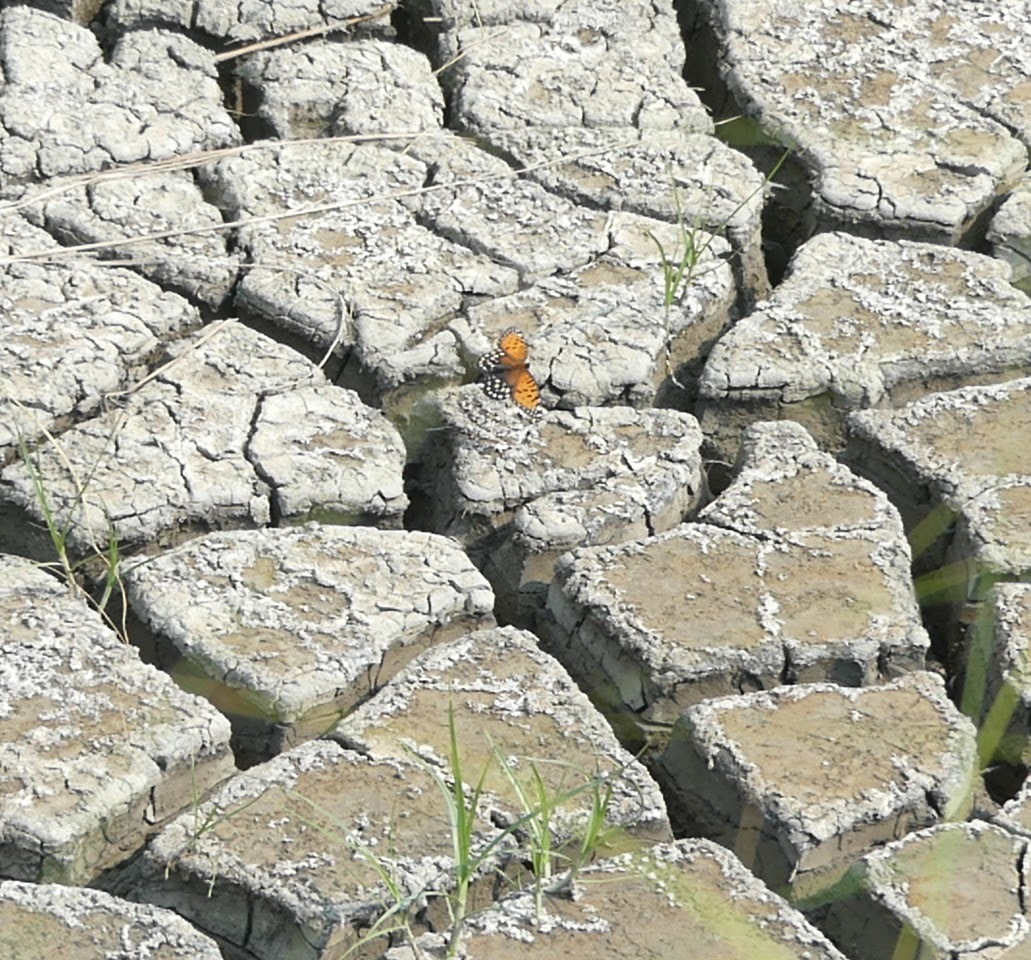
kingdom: Animalia
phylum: Arthropoda
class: Insecta
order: Lepidoptera
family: Nymphalidae
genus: Speyeria
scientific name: Speyeria idalia
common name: Regal fritillary
